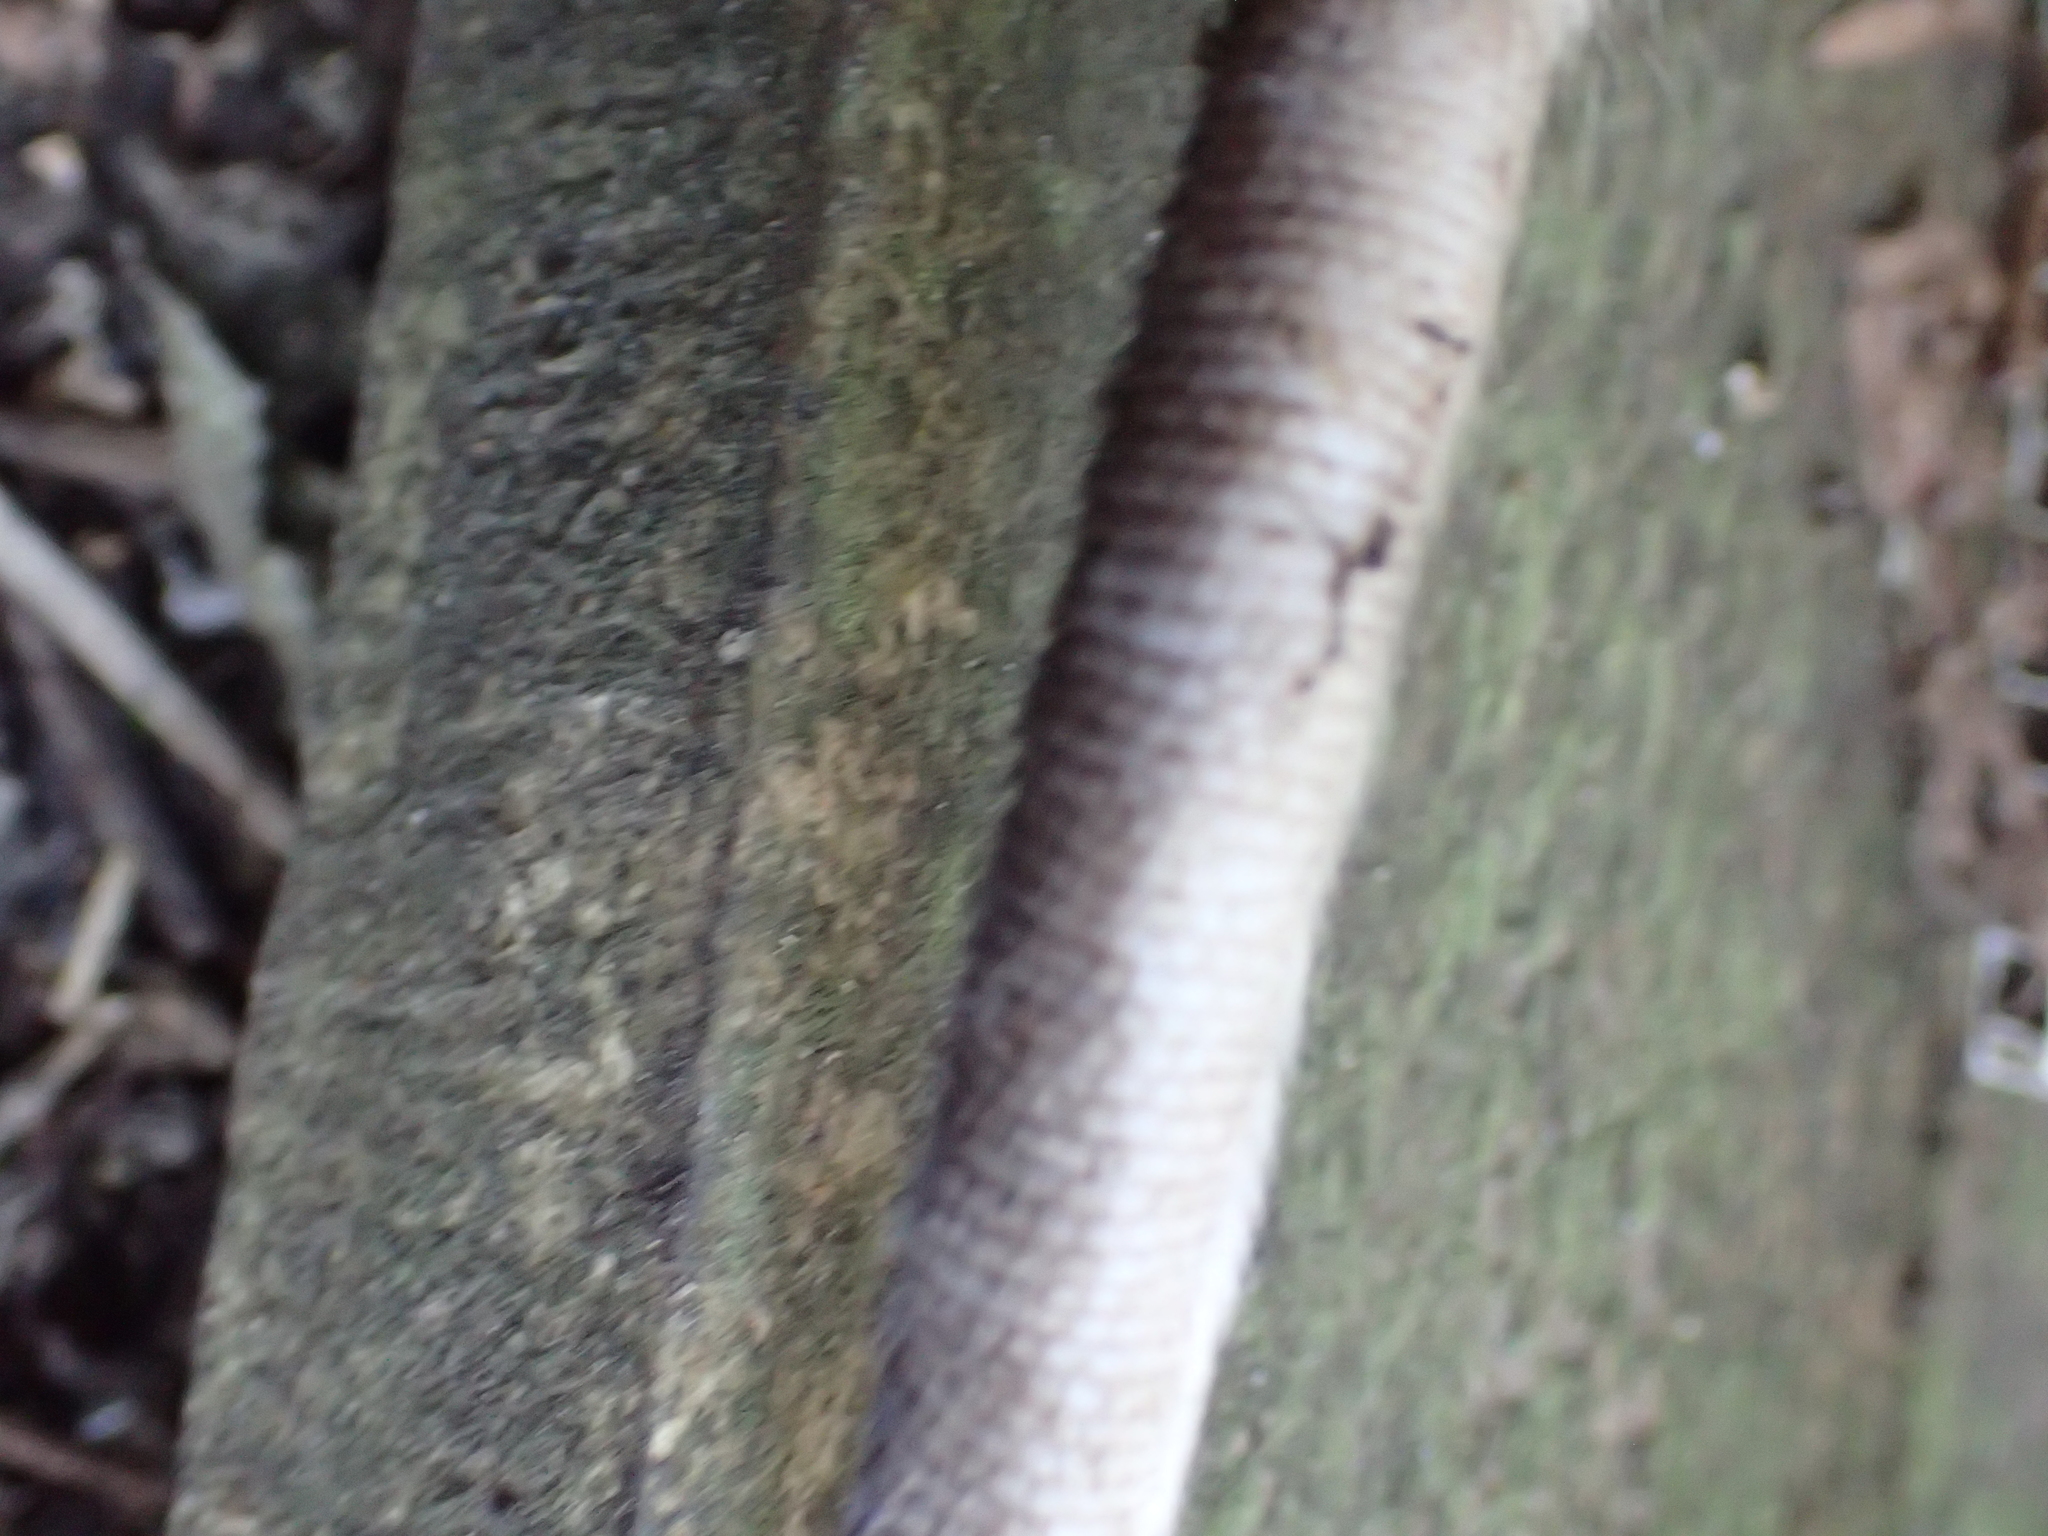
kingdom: Animalia
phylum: Chordata
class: Mammalia
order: Rodentia
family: Muridae
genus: Rattus
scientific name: Rattus norvegicus
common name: Brown rat
